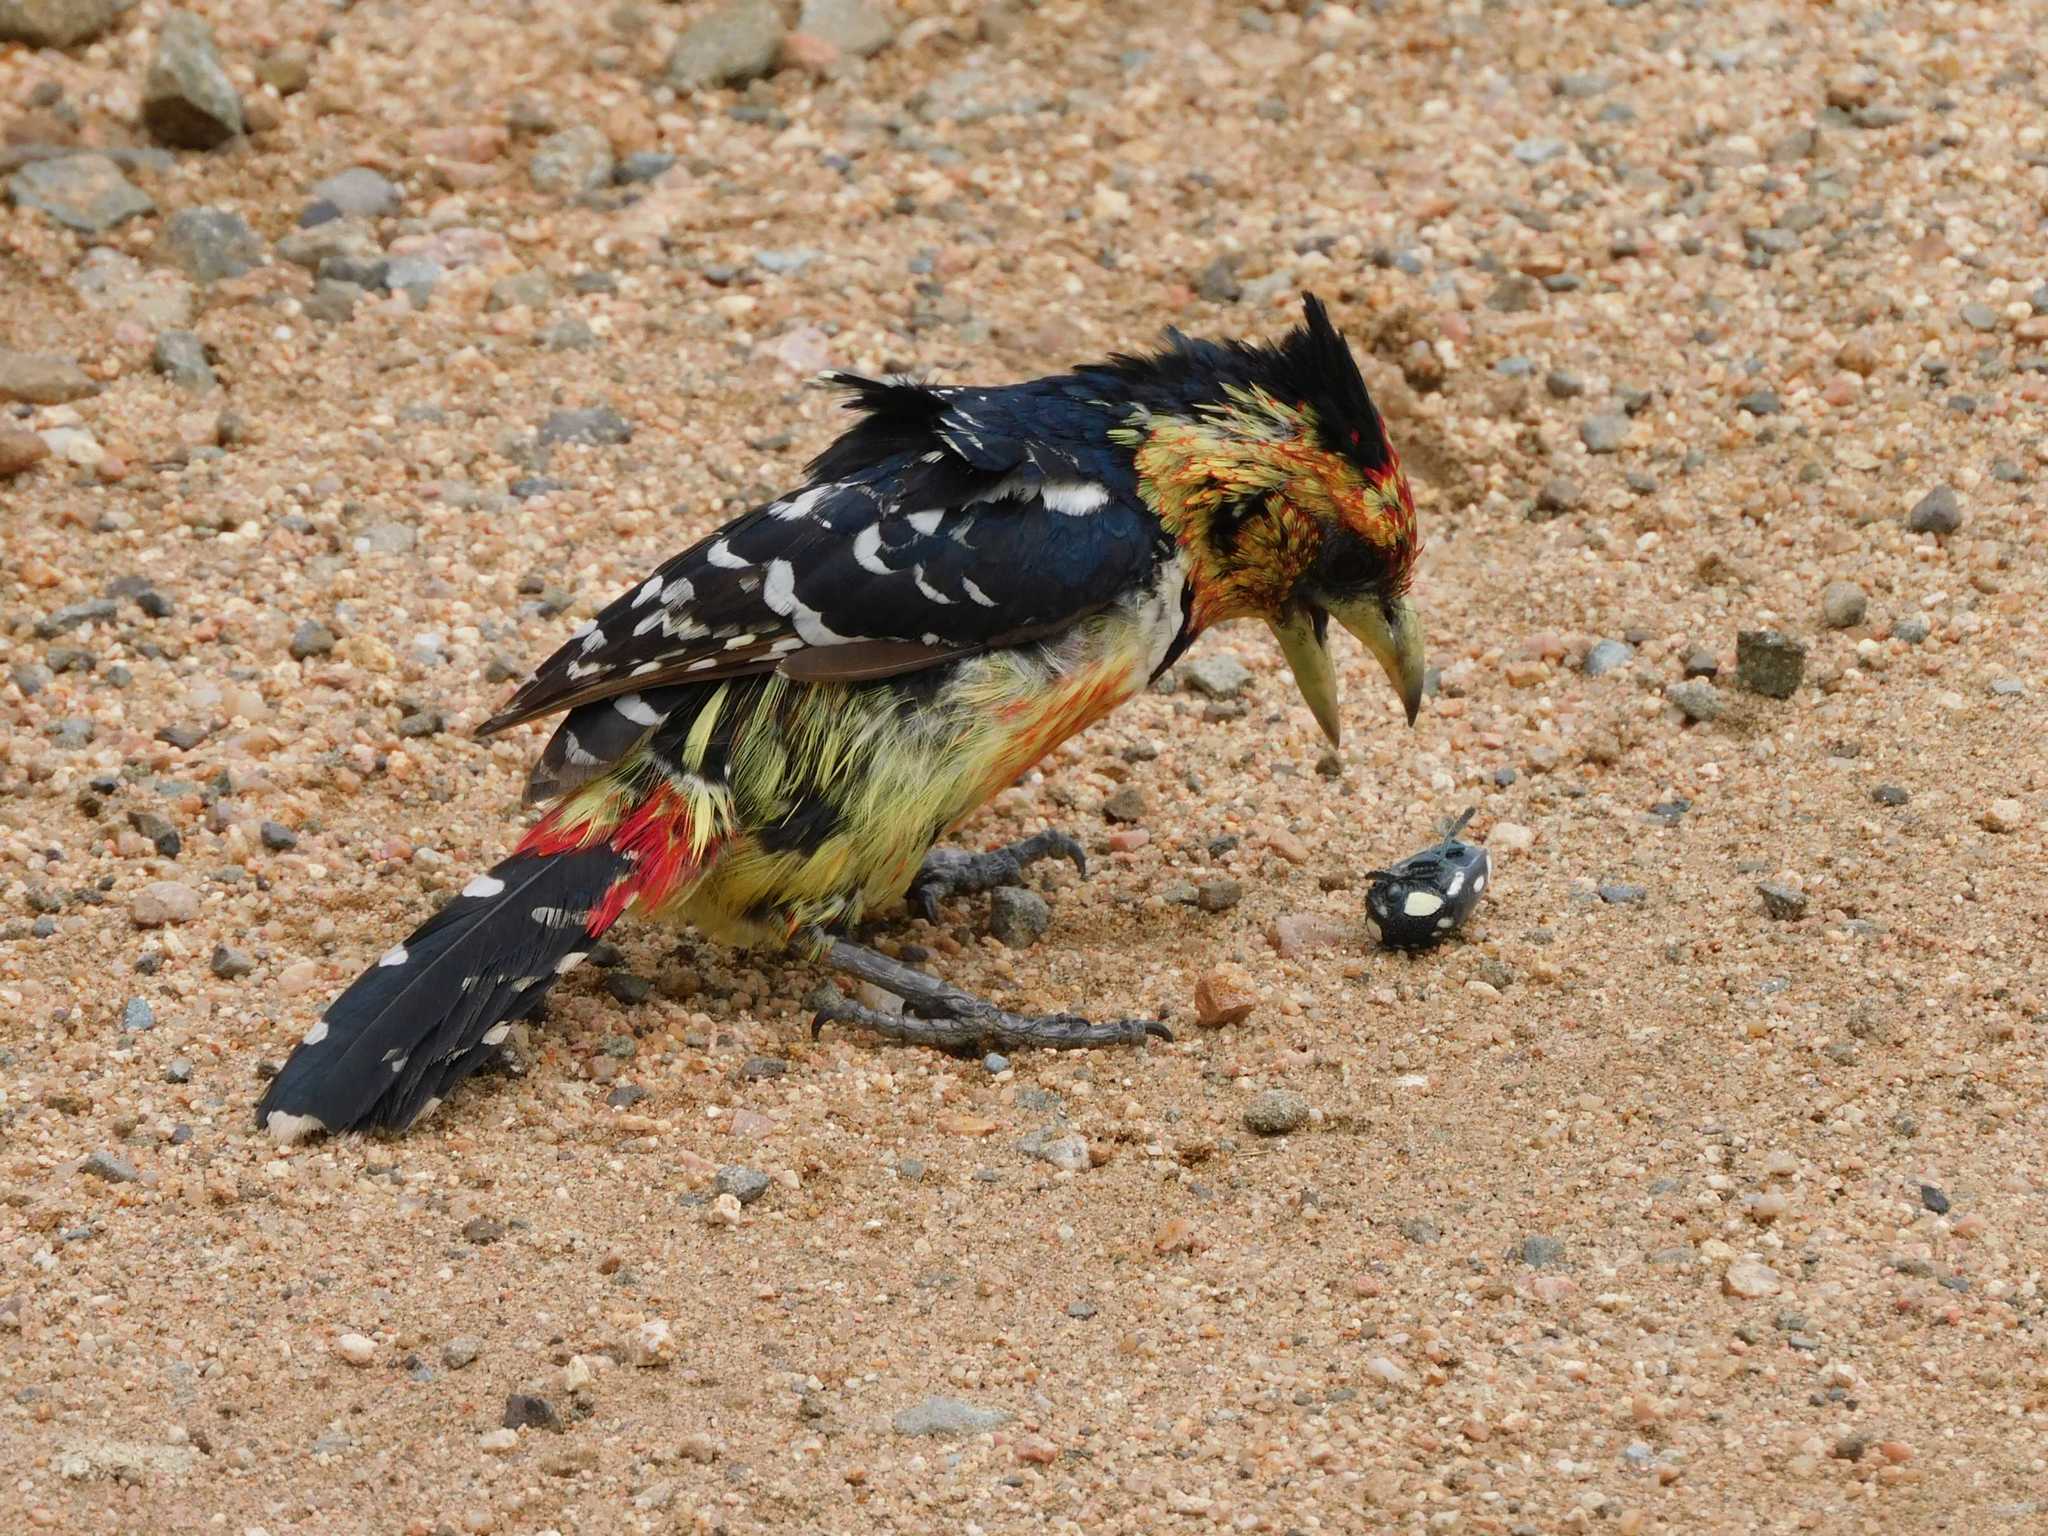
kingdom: Animalia
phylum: Chordata
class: Aves
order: Piciformes
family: Lybiidae
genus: Trachyphonus
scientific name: Trachyphonus vaillantii
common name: Crested barbet
